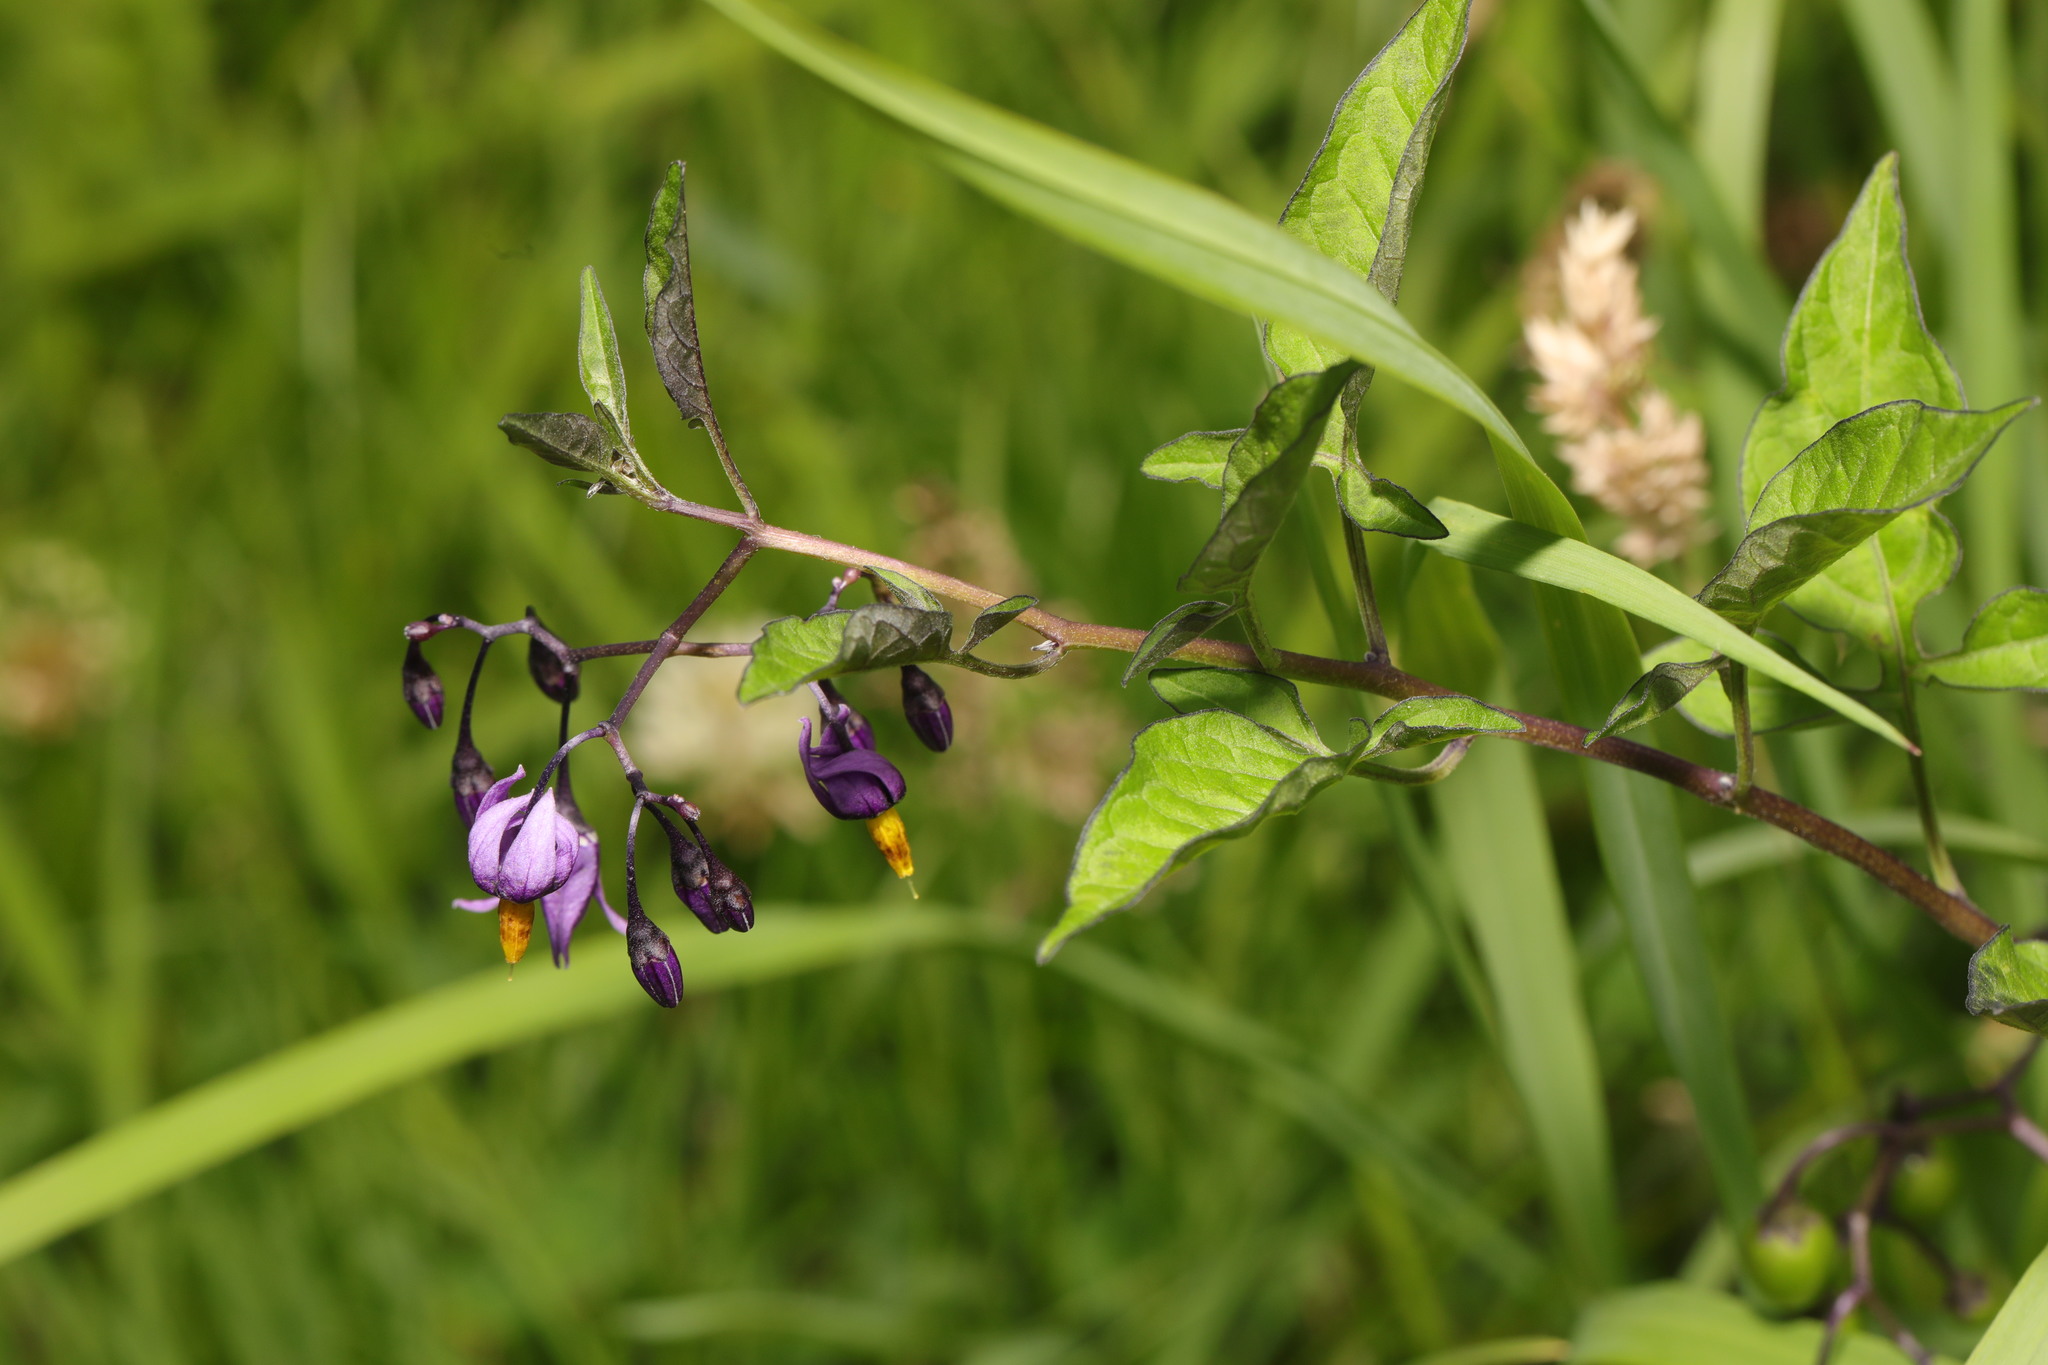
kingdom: Plantae
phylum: Tracheophyta
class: Magnoliopsida
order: Solanales
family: Solanaceae
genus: Solanum
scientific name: Solanum dulcamara
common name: Climbing nightshade
